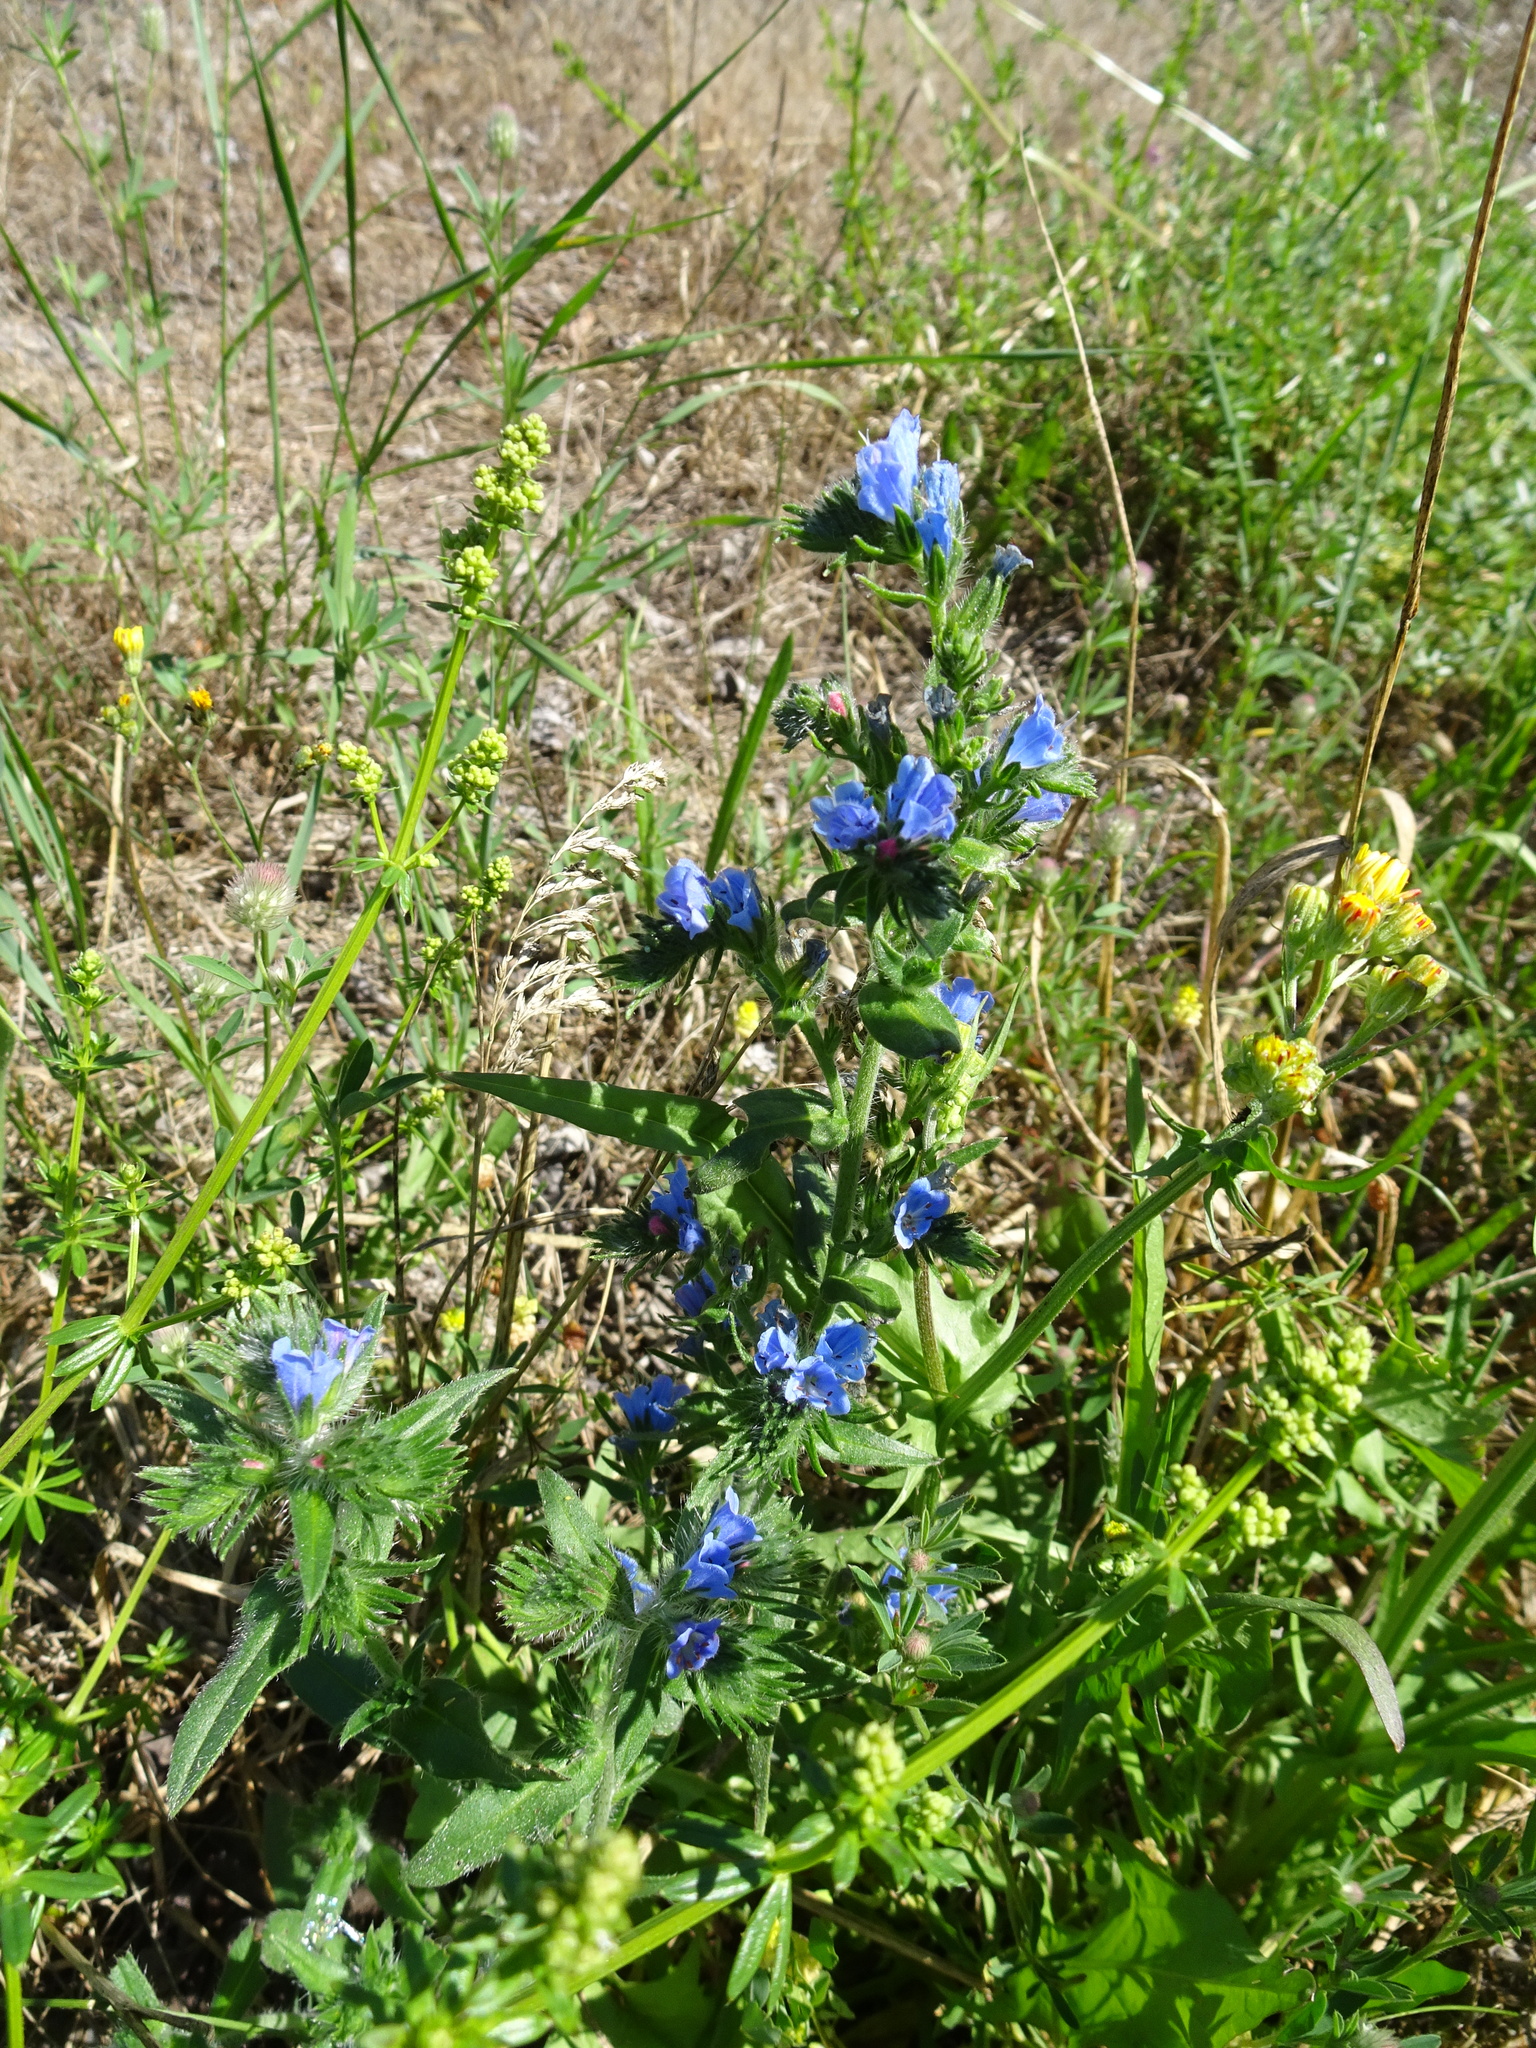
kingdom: Plantae
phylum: Tracheophyta
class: Magnoliopsida
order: Boraginales
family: Boraginaceae
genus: Echium
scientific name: Echium vulgare
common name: Common viper's bugloss
